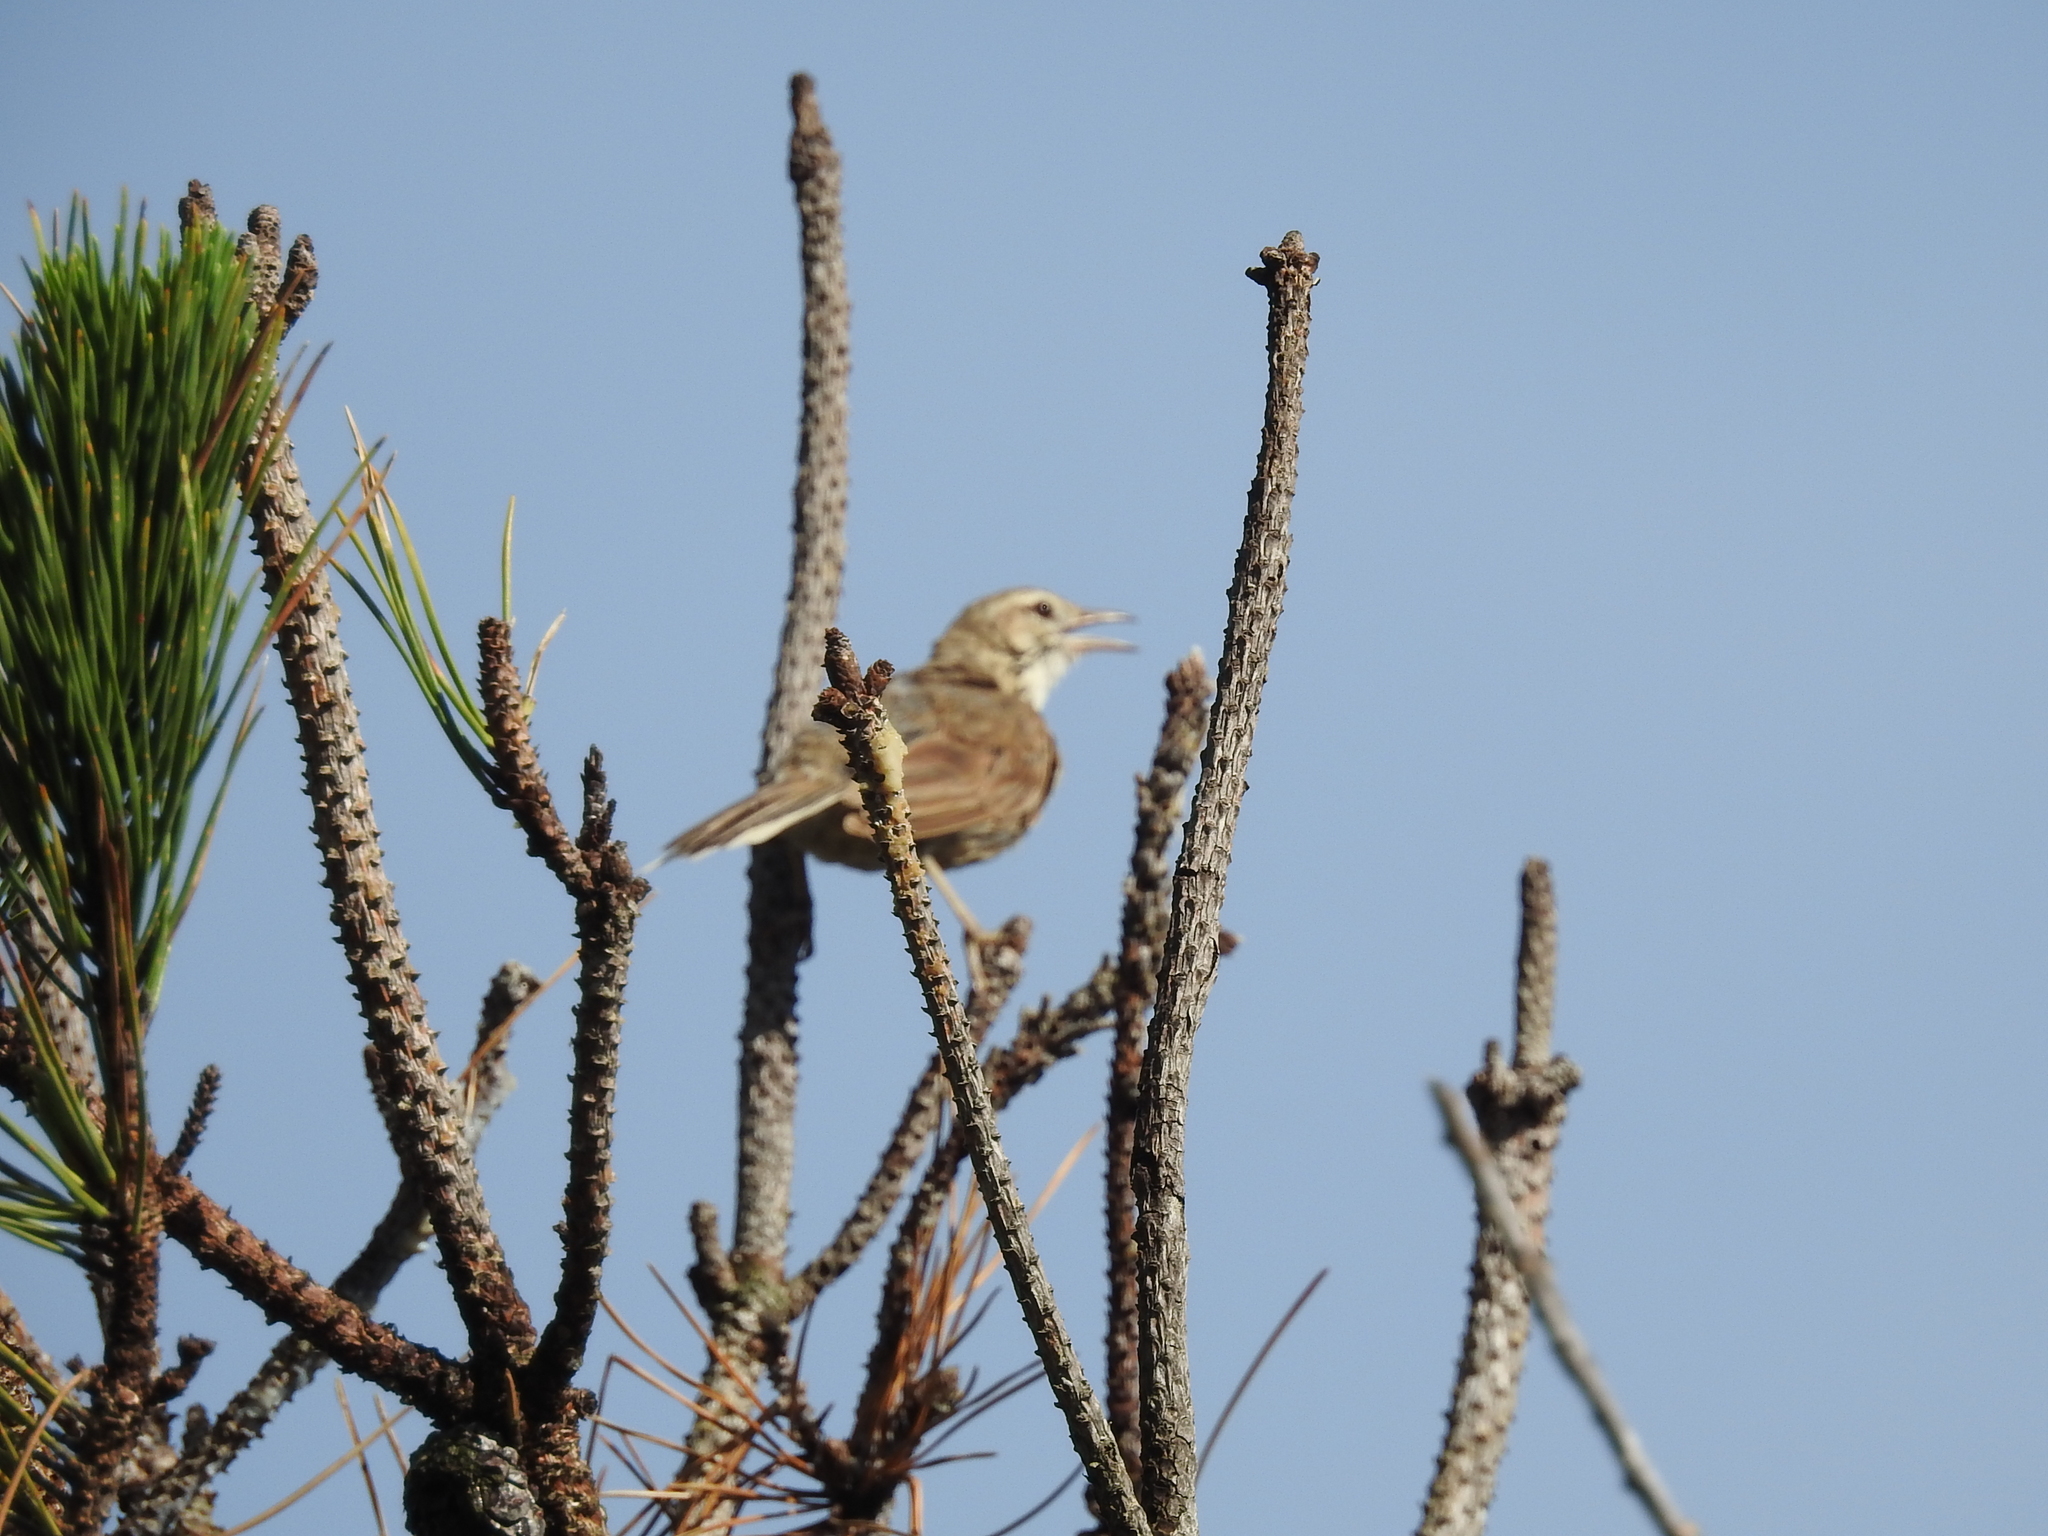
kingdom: Animalia
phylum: Chordata
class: Aves
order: Passeriformes
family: Furnariidae
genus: Anumbius
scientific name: Anumbius annumbi
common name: Firewood-gatherer
